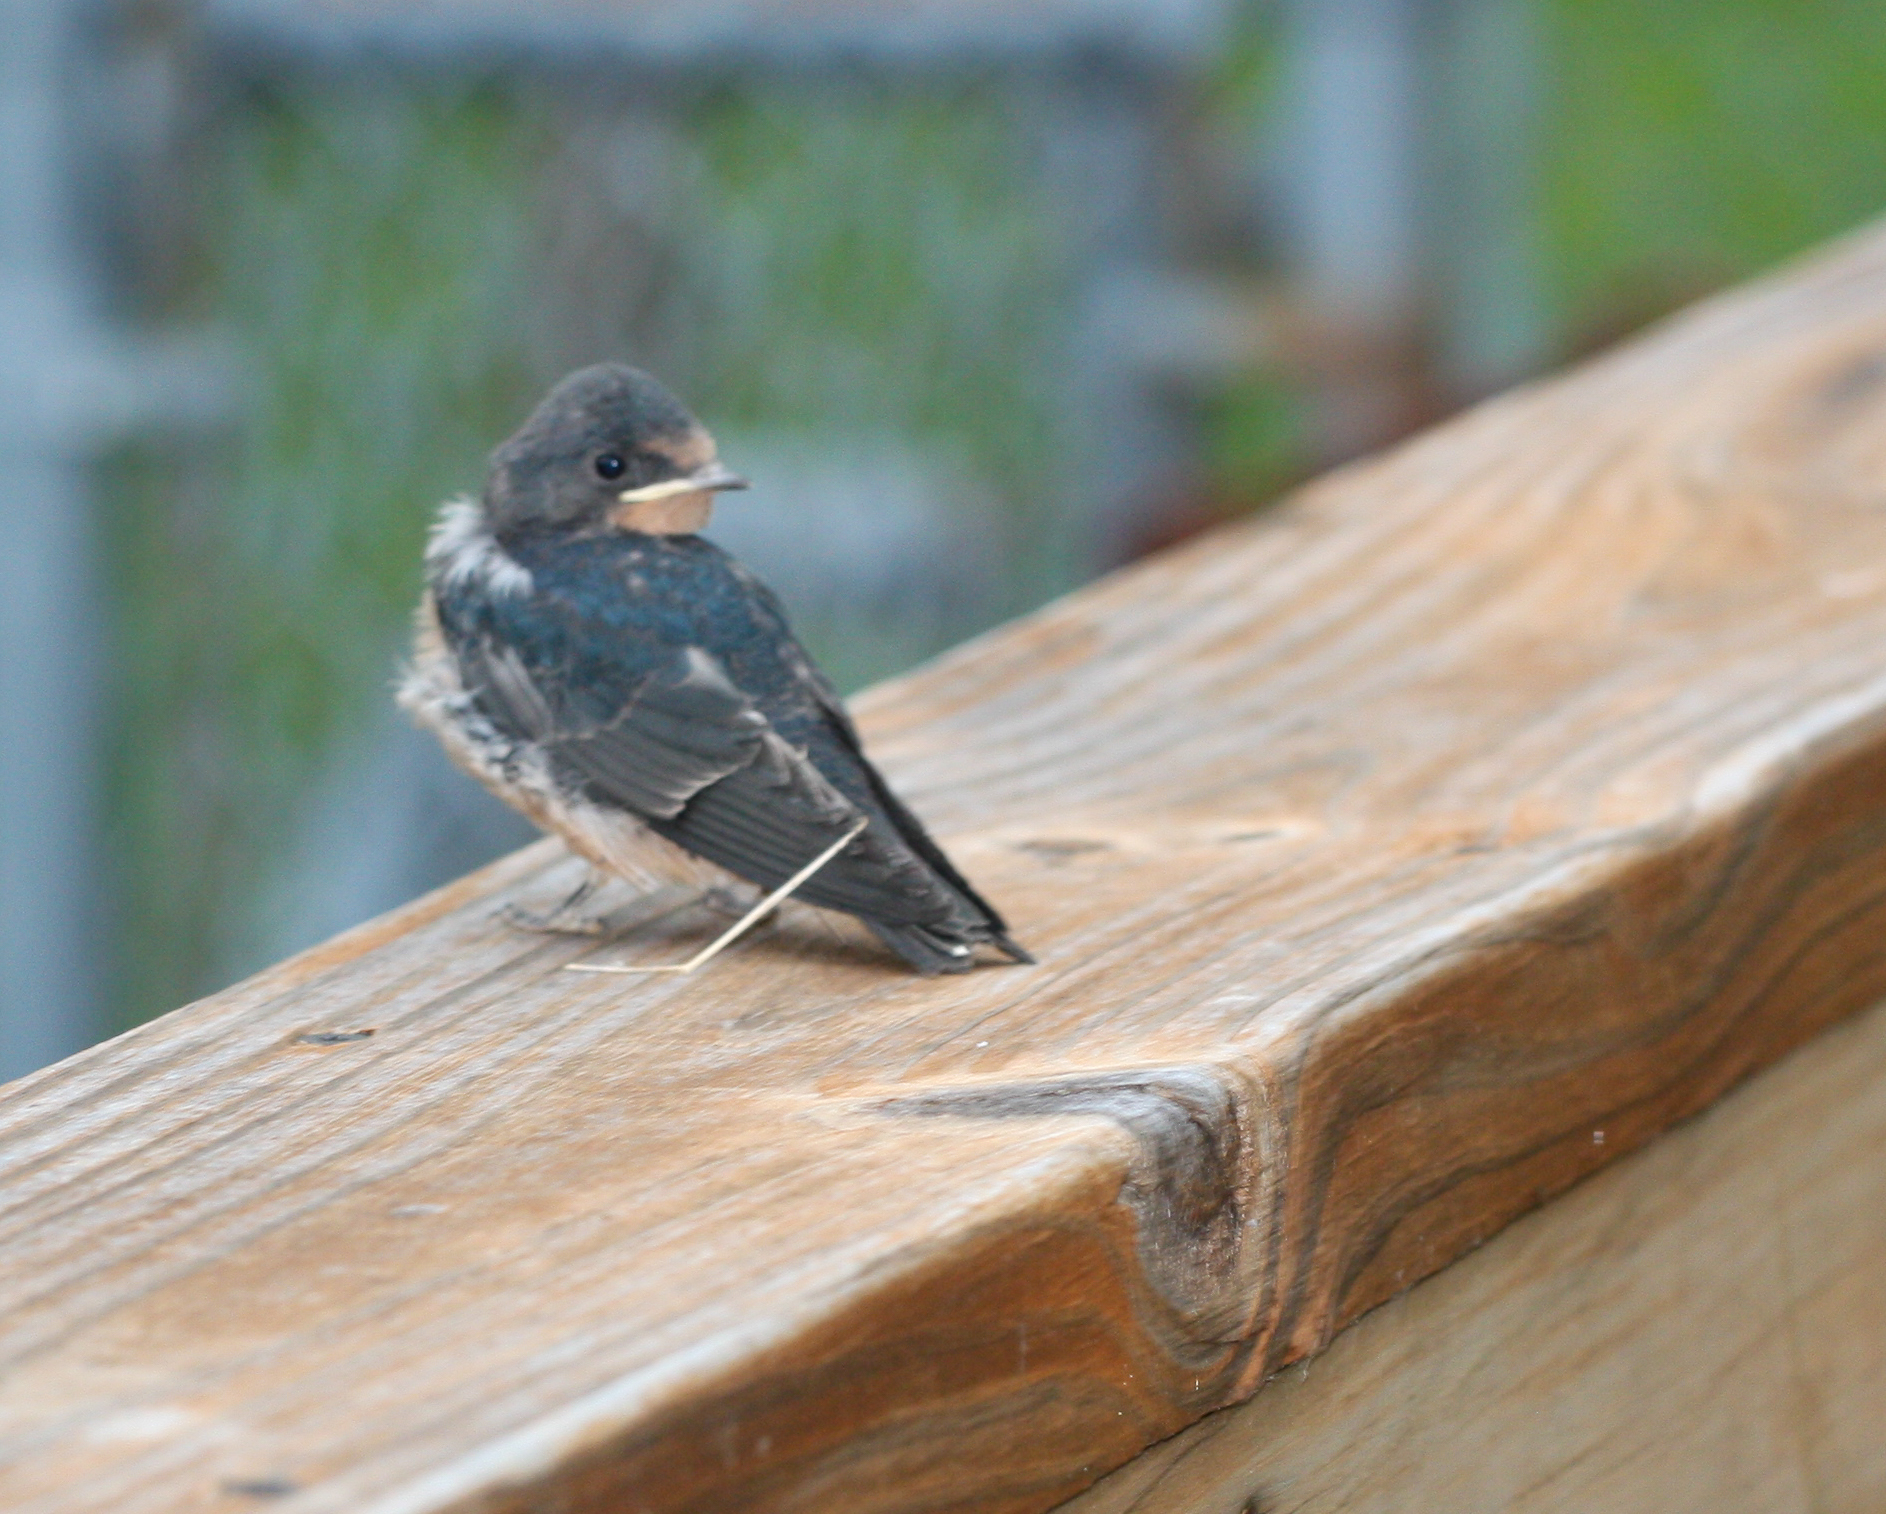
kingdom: Animalia
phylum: Chordata
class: Aves
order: Passeriformes
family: Hirundinidae
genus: Hirundo
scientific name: Hirundo rustica
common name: Barn swallow
